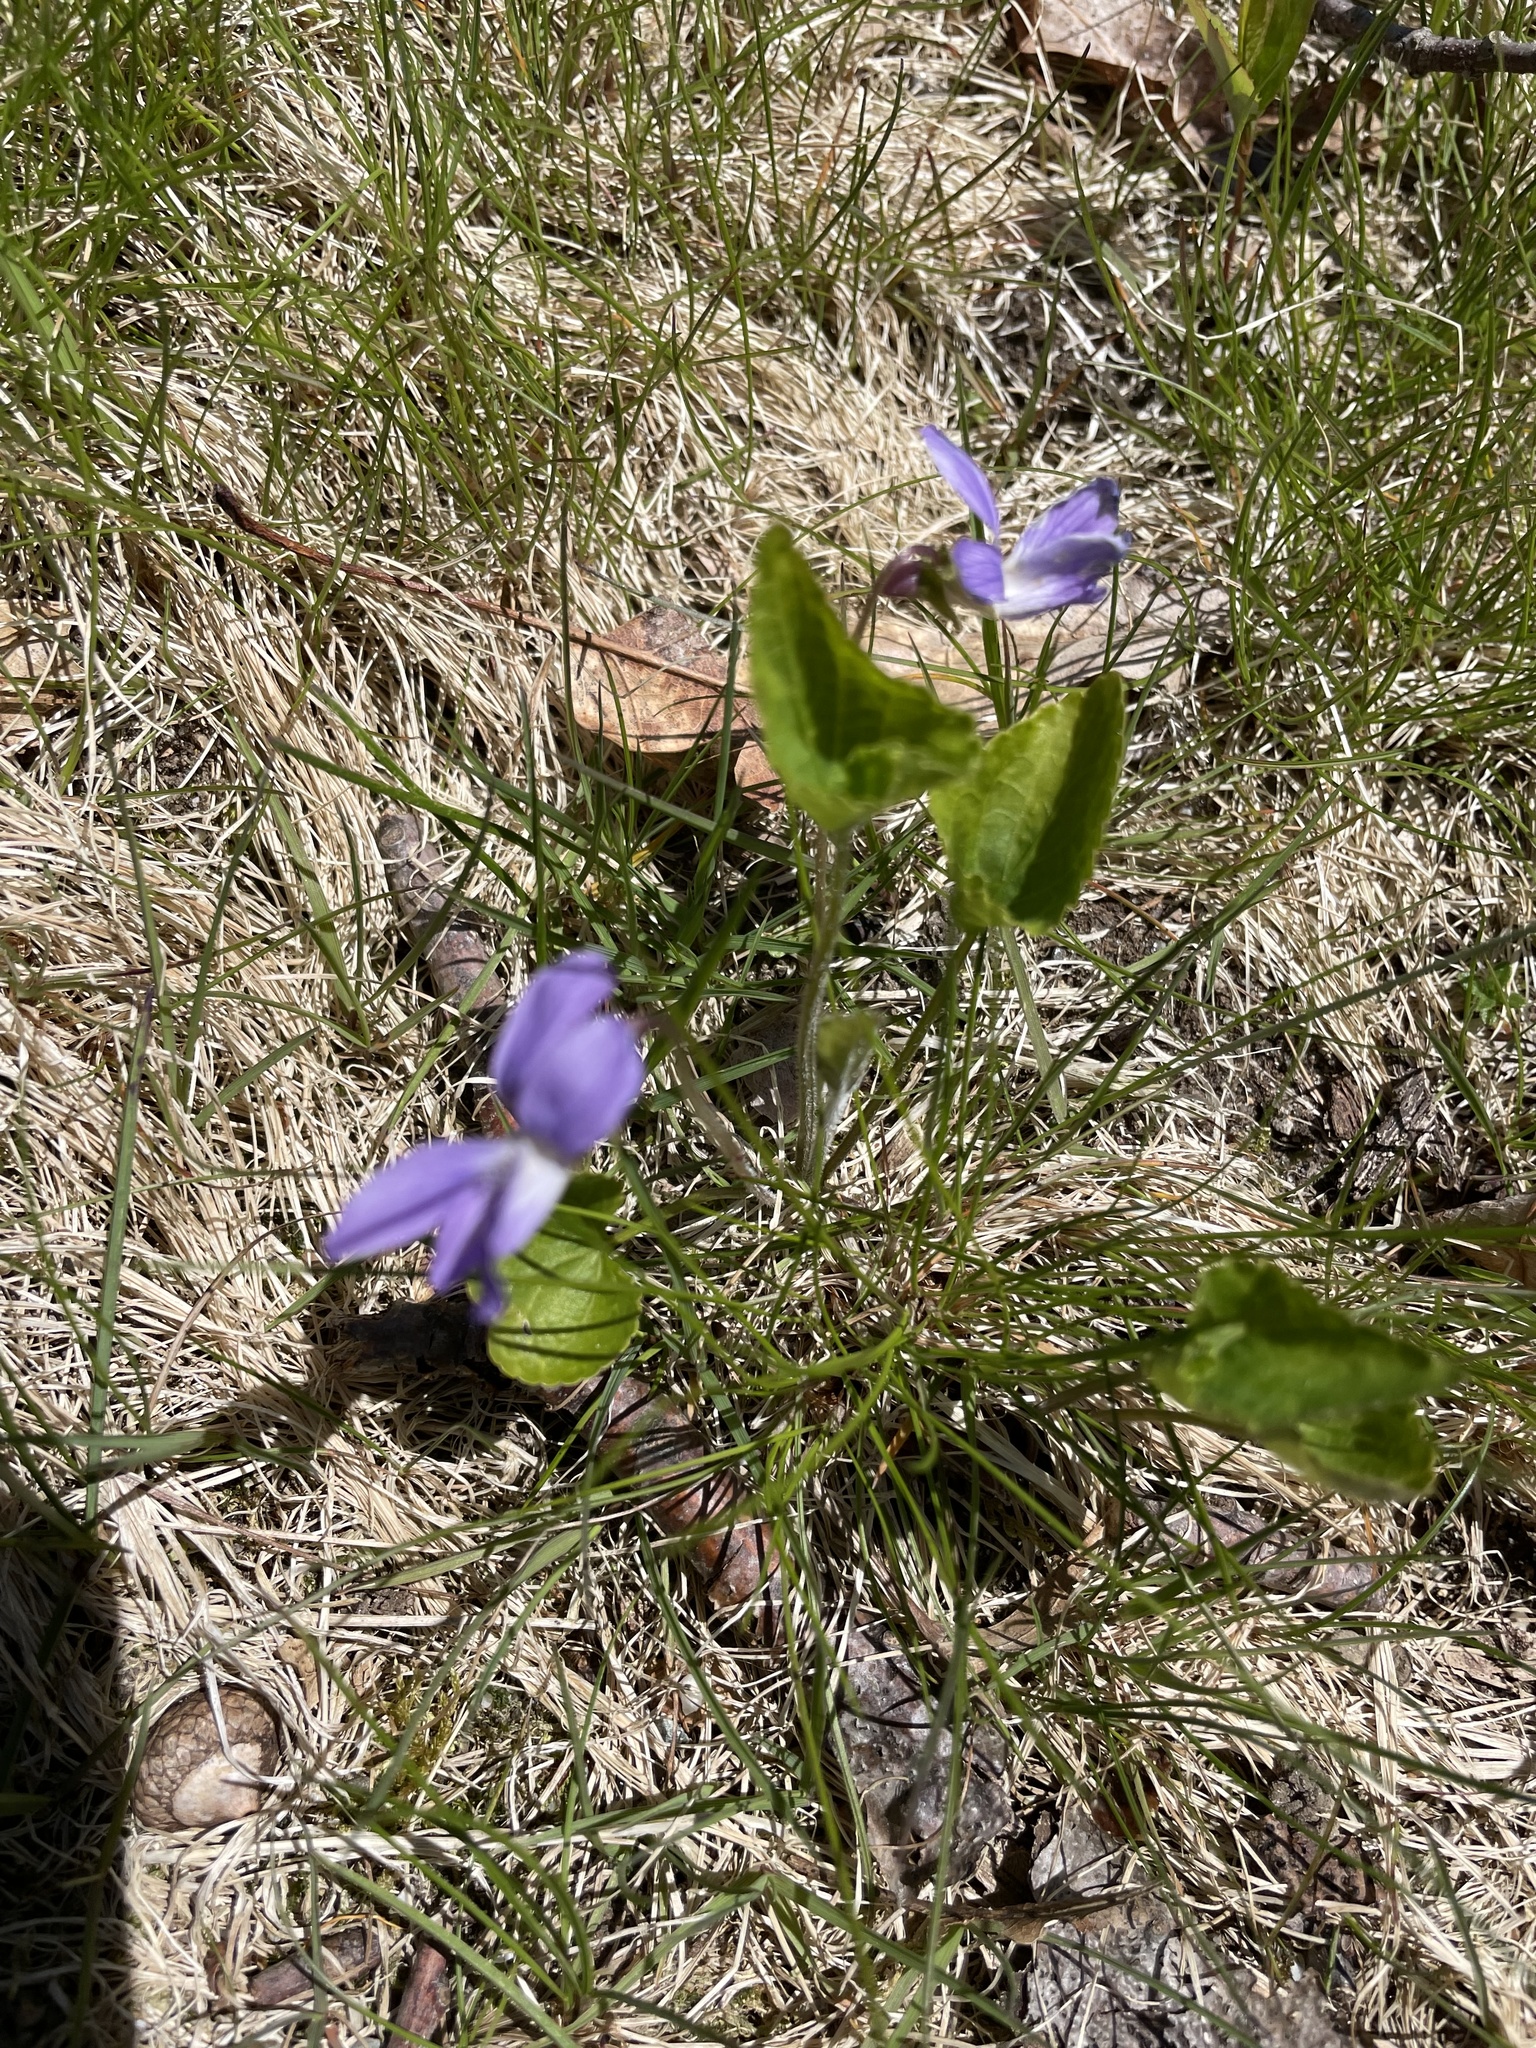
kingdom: Plantae
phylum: Tracheophyta
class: Magnoliopsida
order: Malpighiales
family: Violaceae
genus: Viola
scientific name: Viola sororia
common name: Dooryard violet
